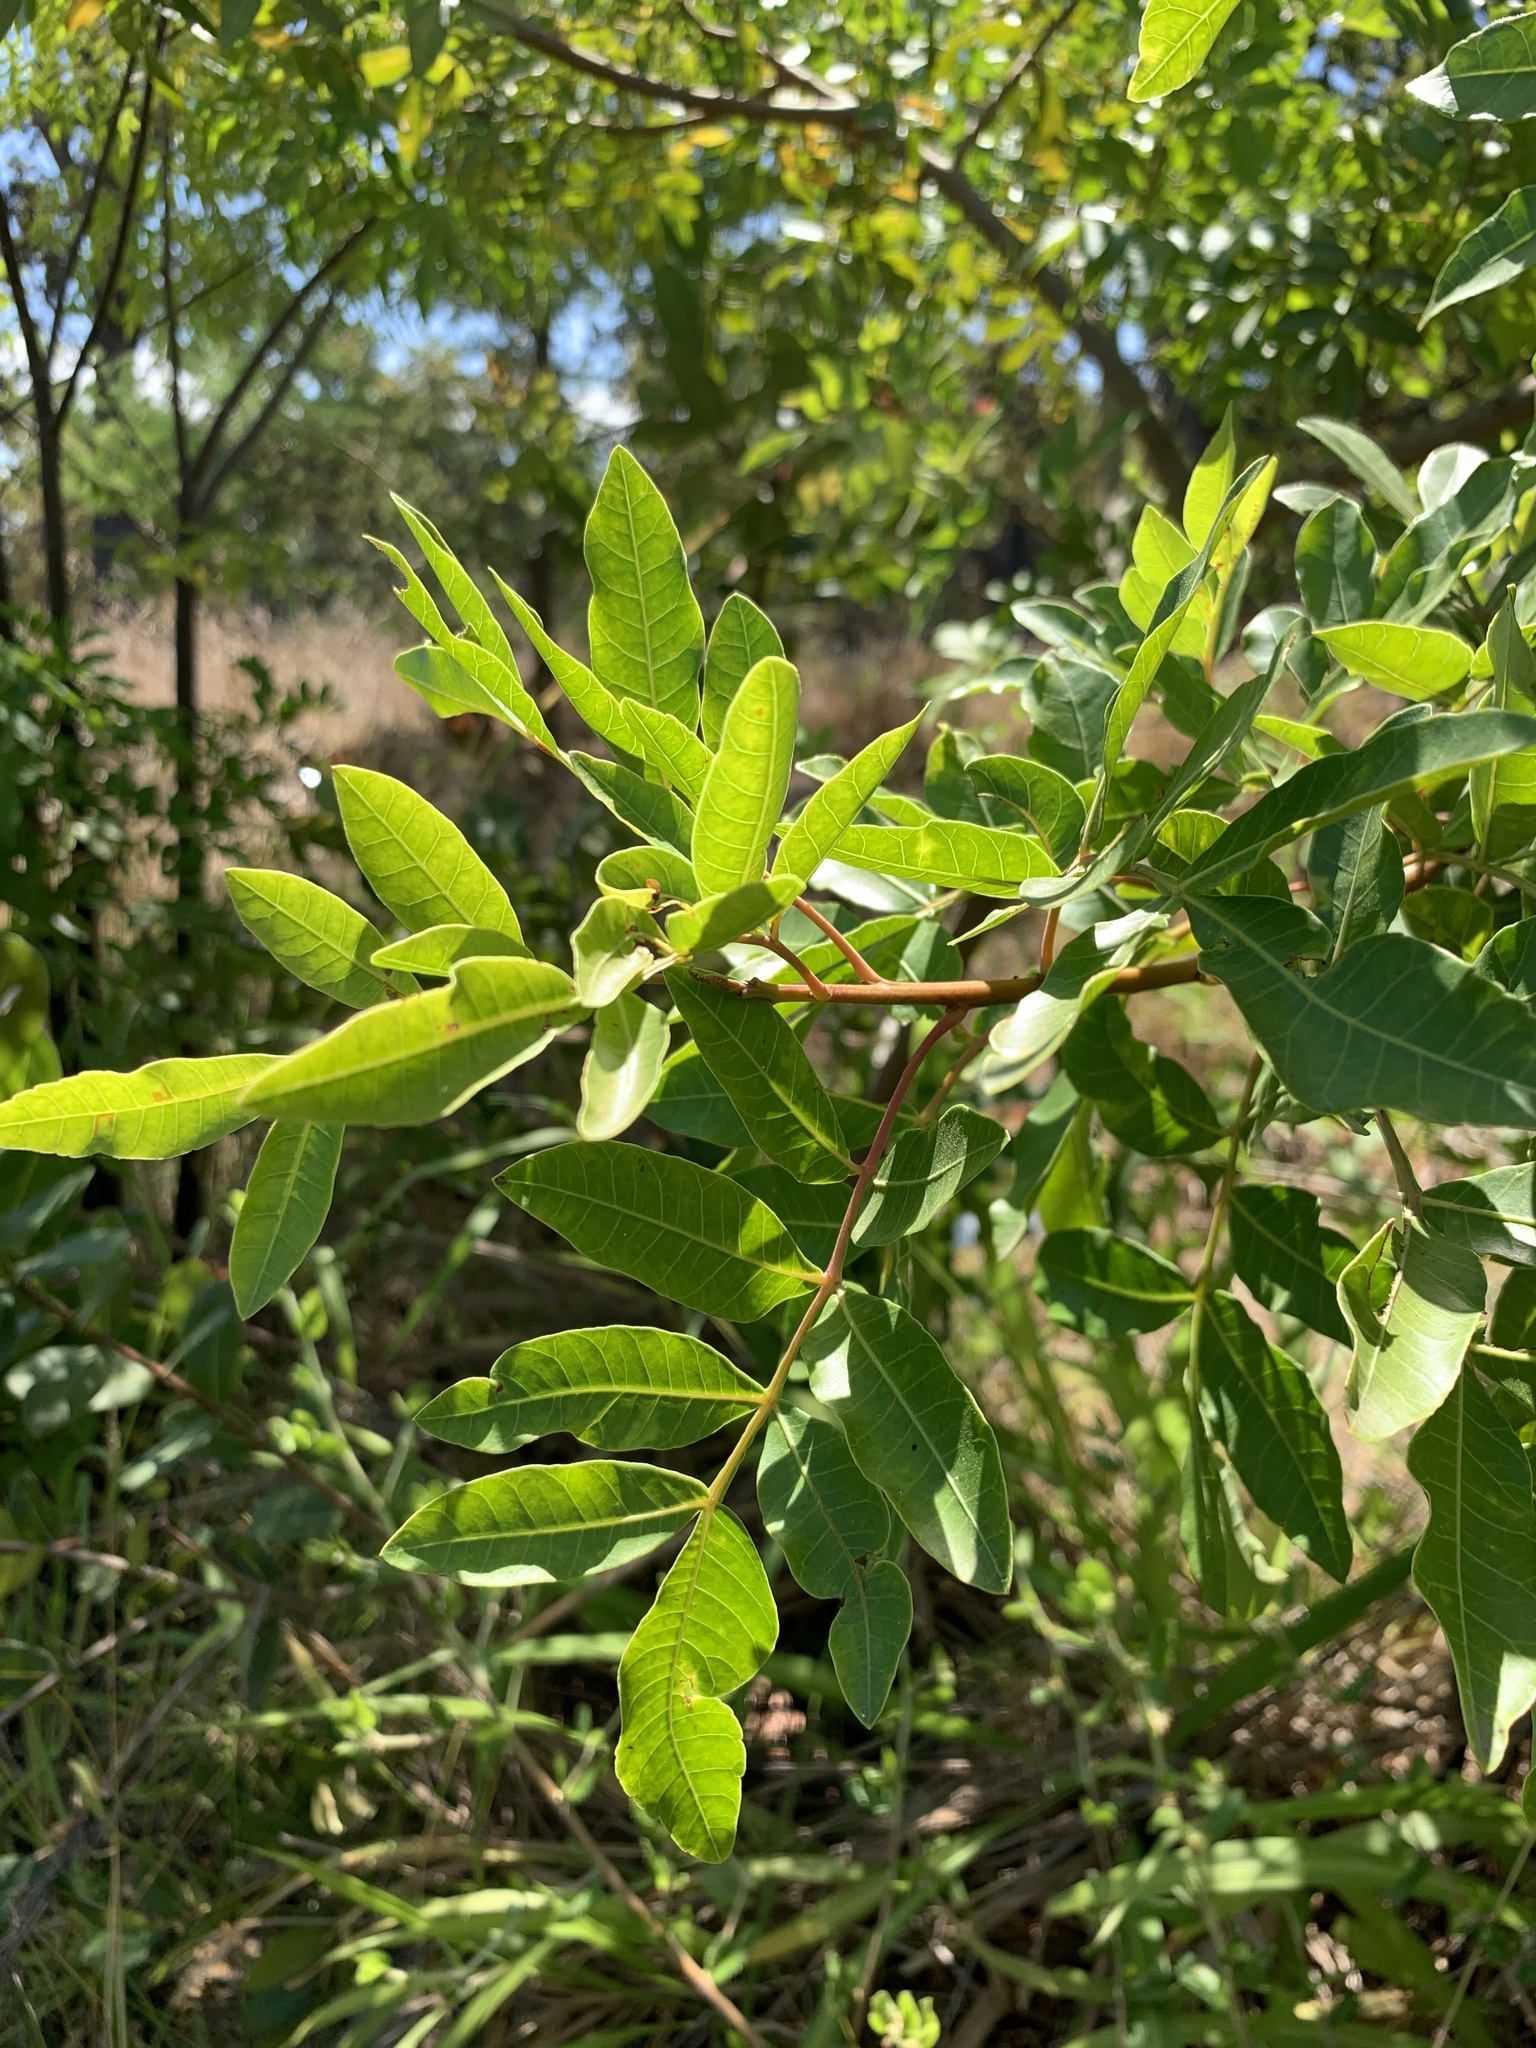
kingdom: Plantae
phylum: Tracheophyta
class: Magnoliopsida
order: Sapindales
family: Anacardiaceae
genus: Schinus
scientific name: Schinus terebinthifolia
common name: Brazilian peppertree
